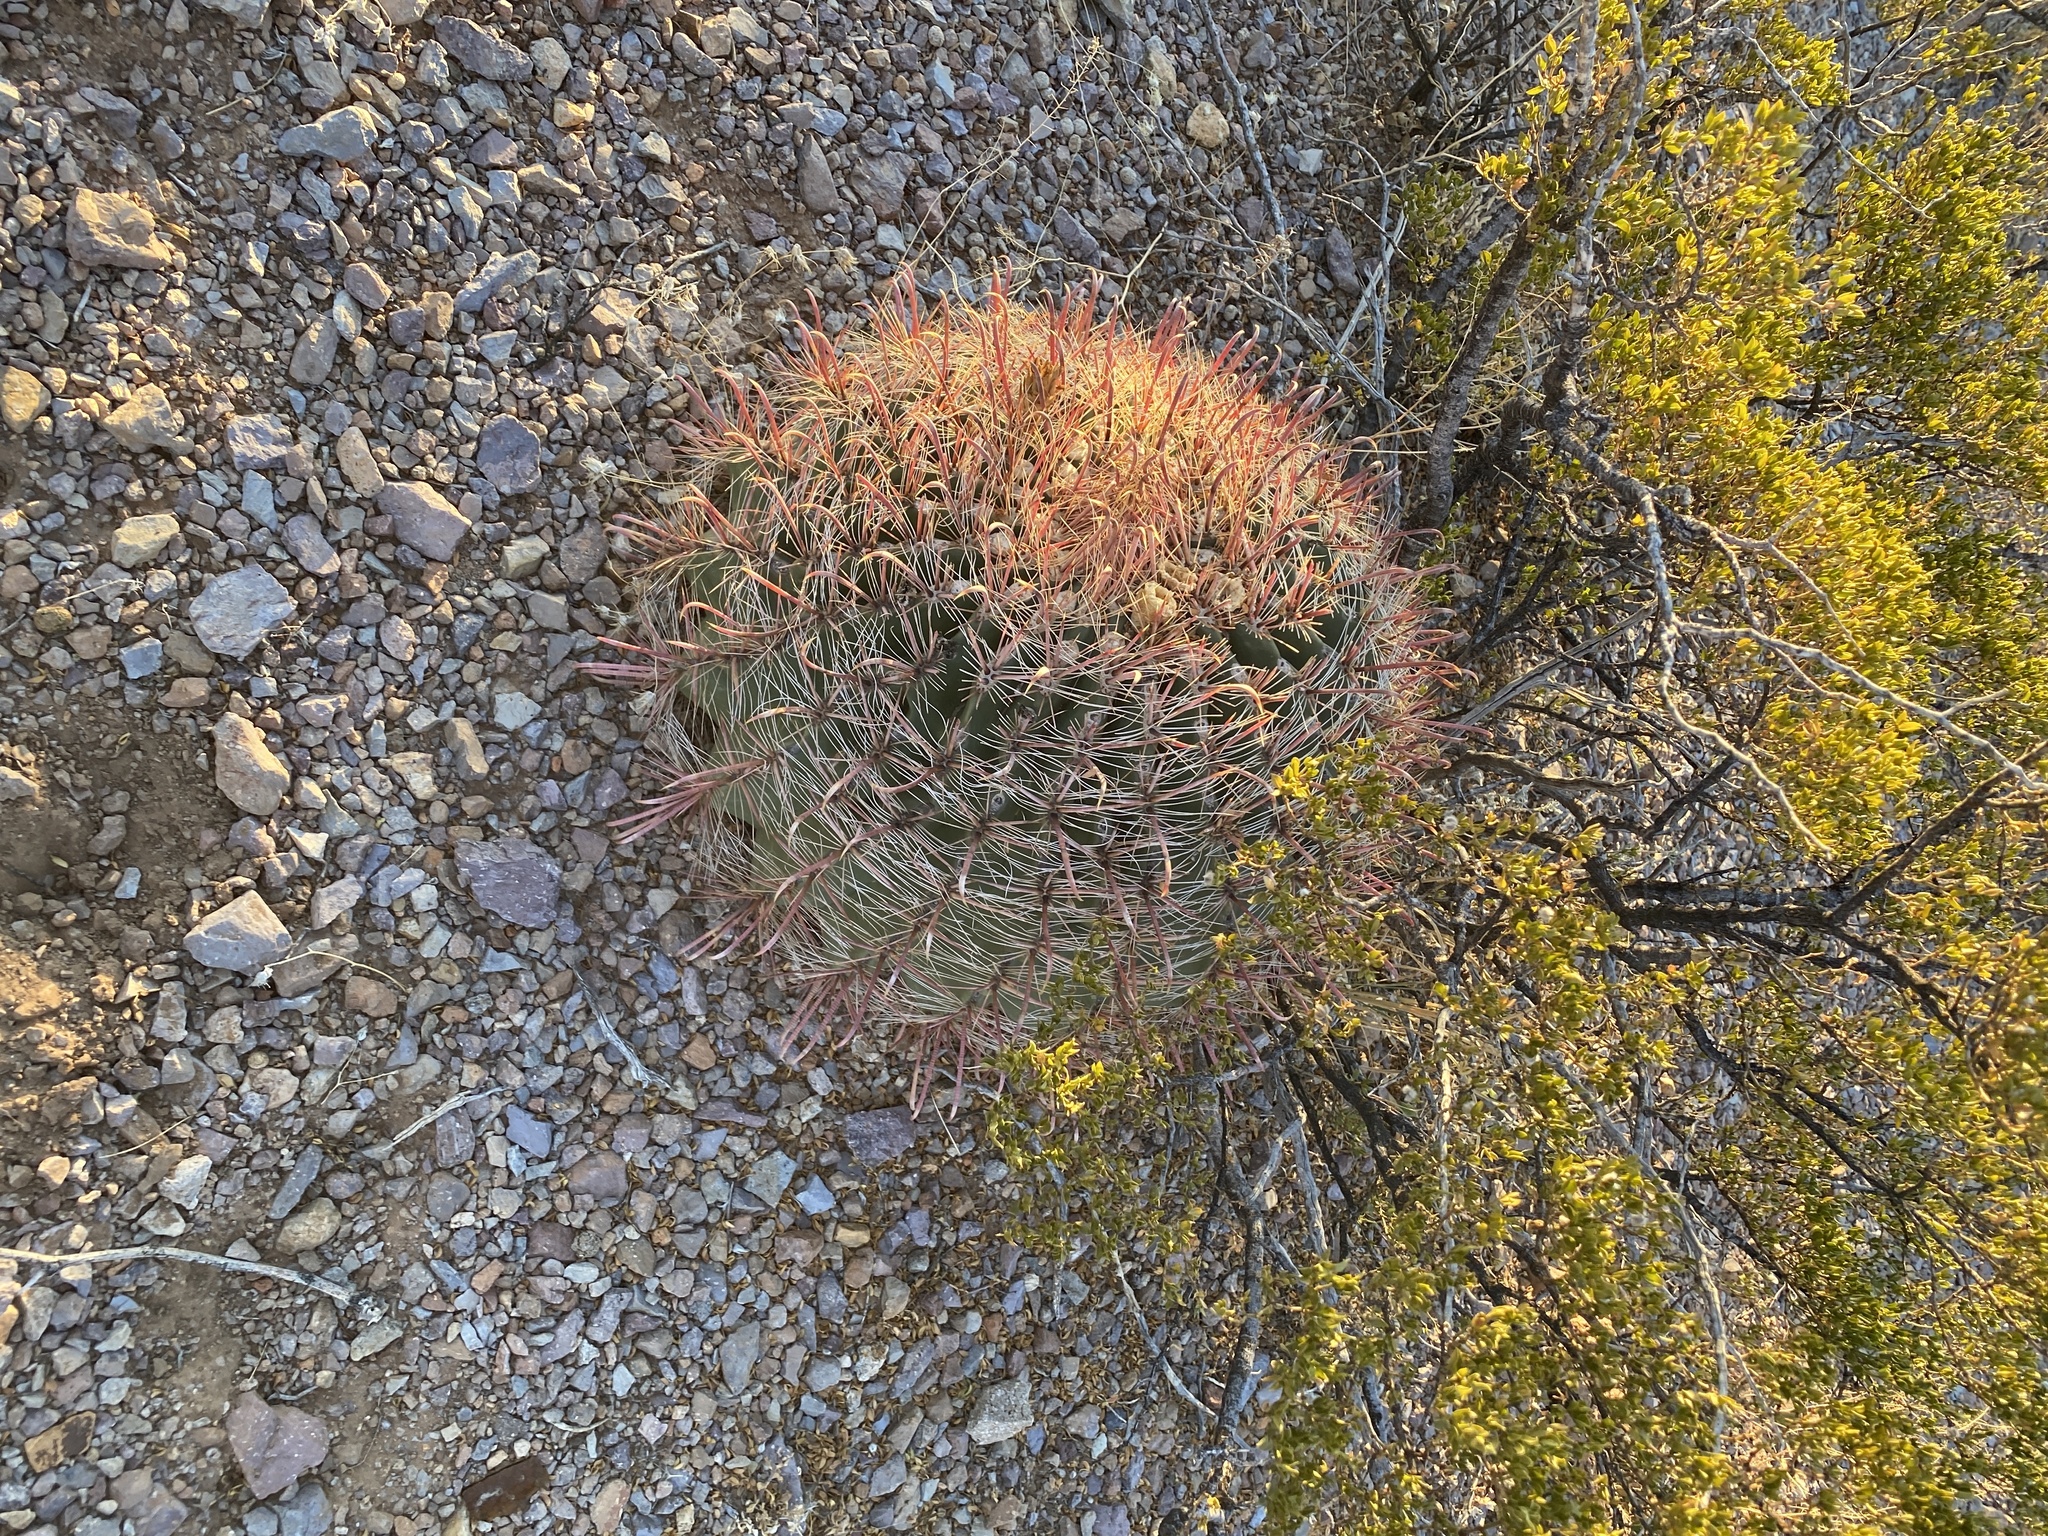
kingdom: Plantae
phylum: Tracheophyta
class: Magnoliopsida
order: Caryophyllales
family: Cactaceae
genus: Ferocactus
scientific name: Ferocactus wislizeni
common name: Candy barrel cactus
